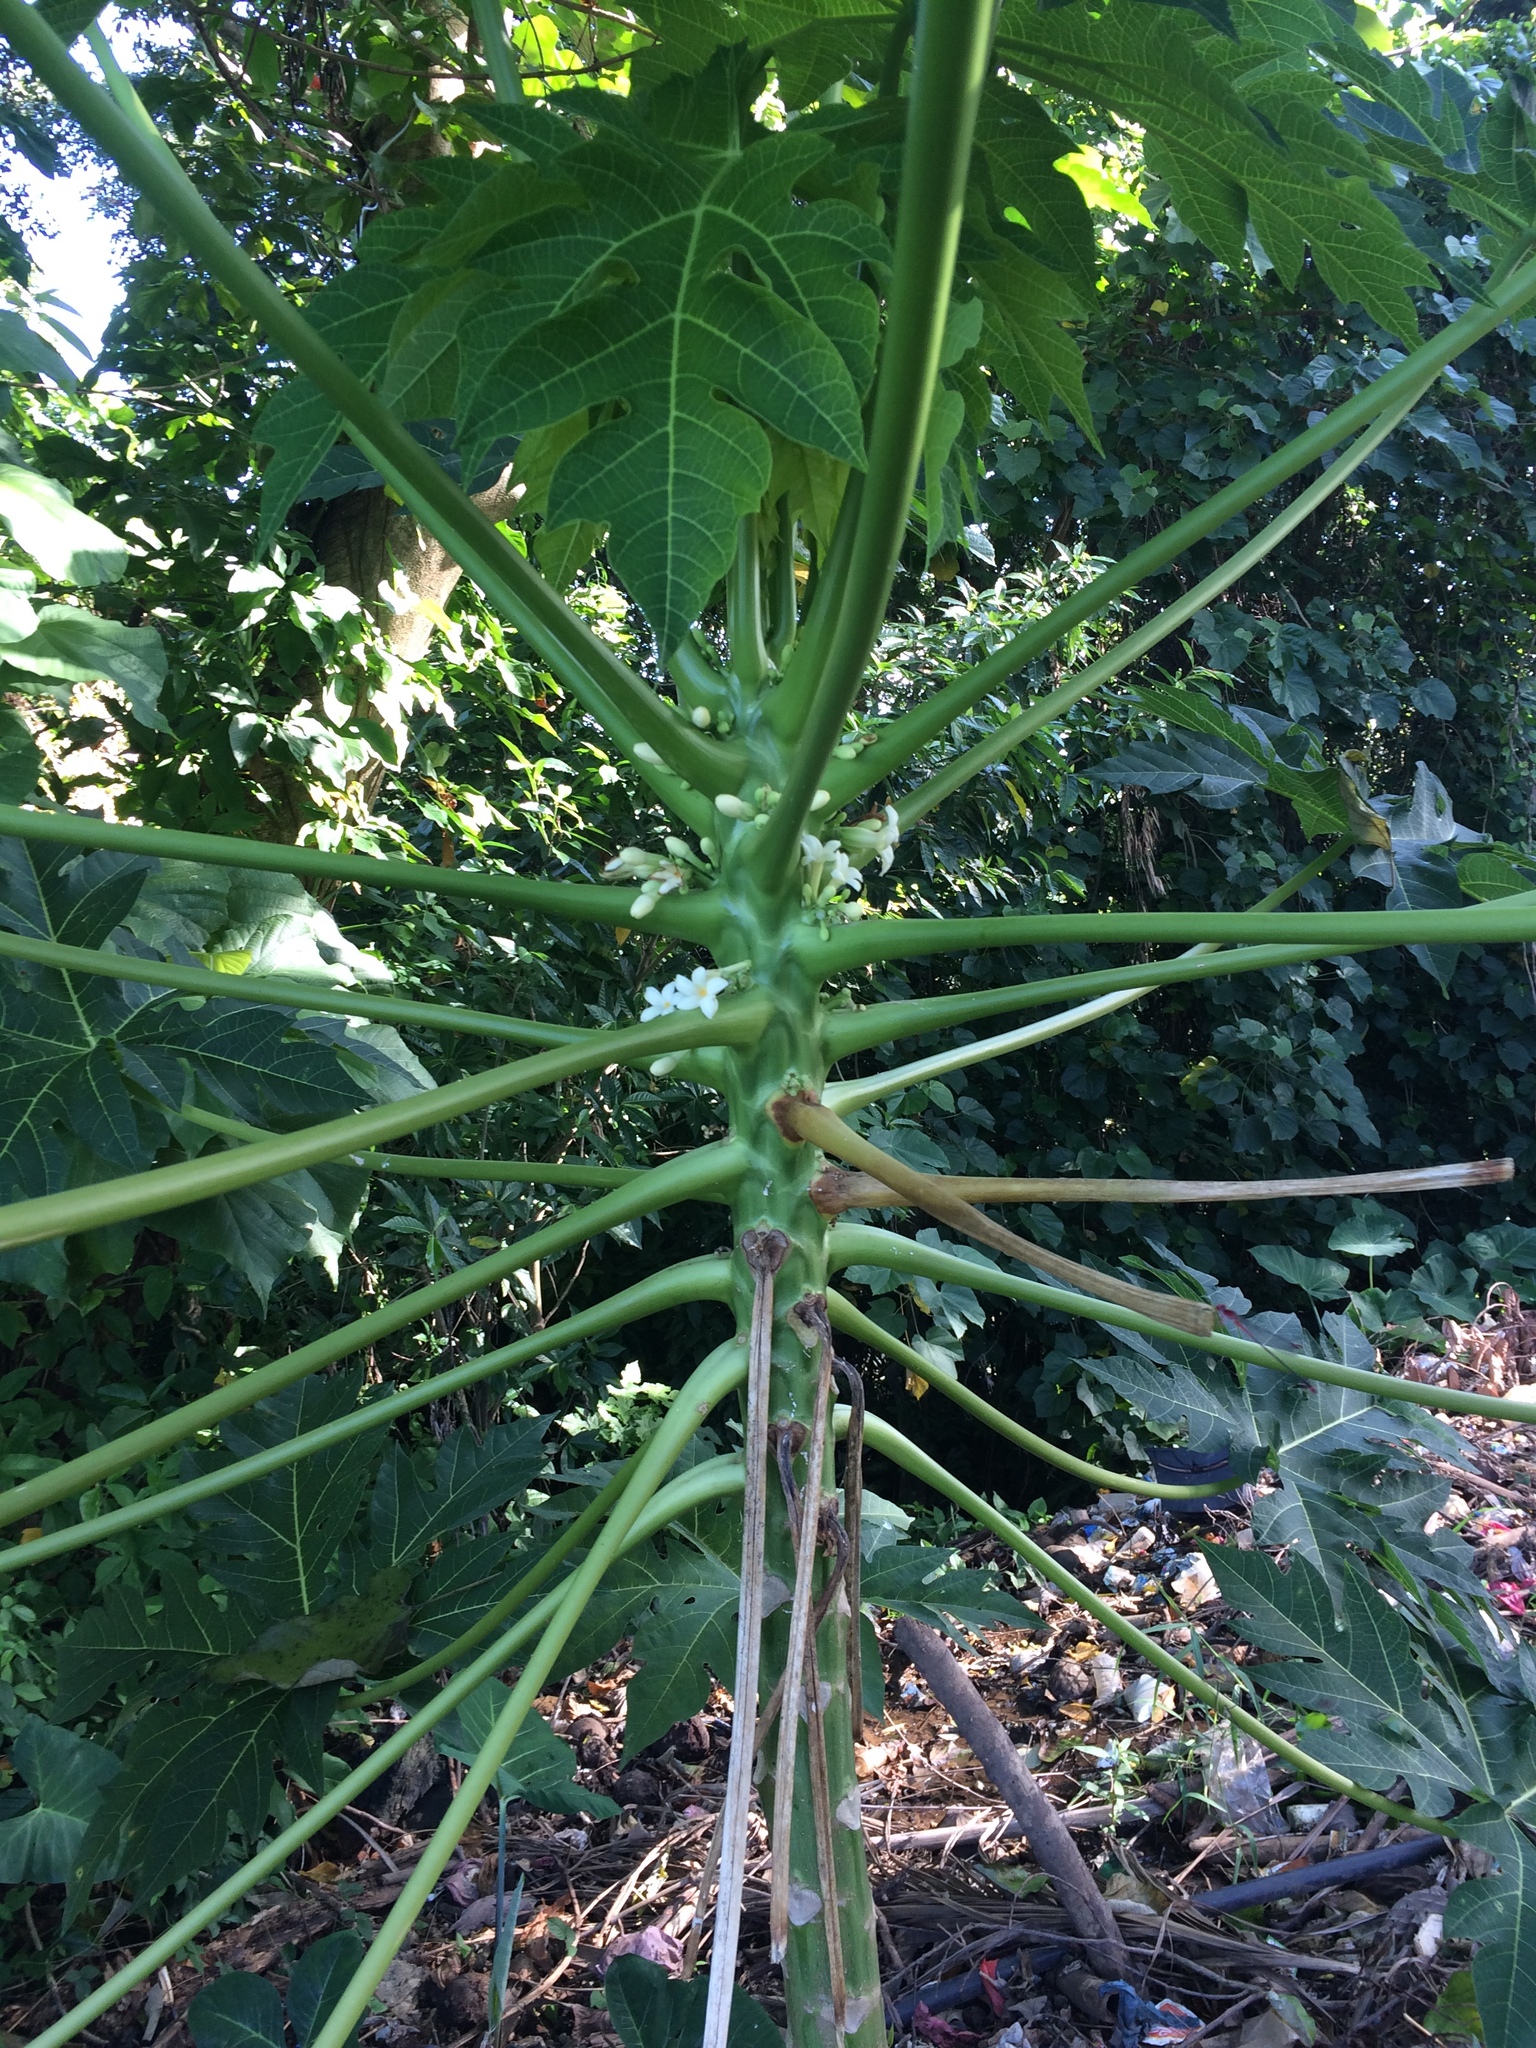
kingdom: Plantae
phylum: Tracheophyta
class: Magnoliopsida
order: Brassicales
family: Caricaceae
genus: Carica
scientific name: Carica papaya
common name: Papaya
